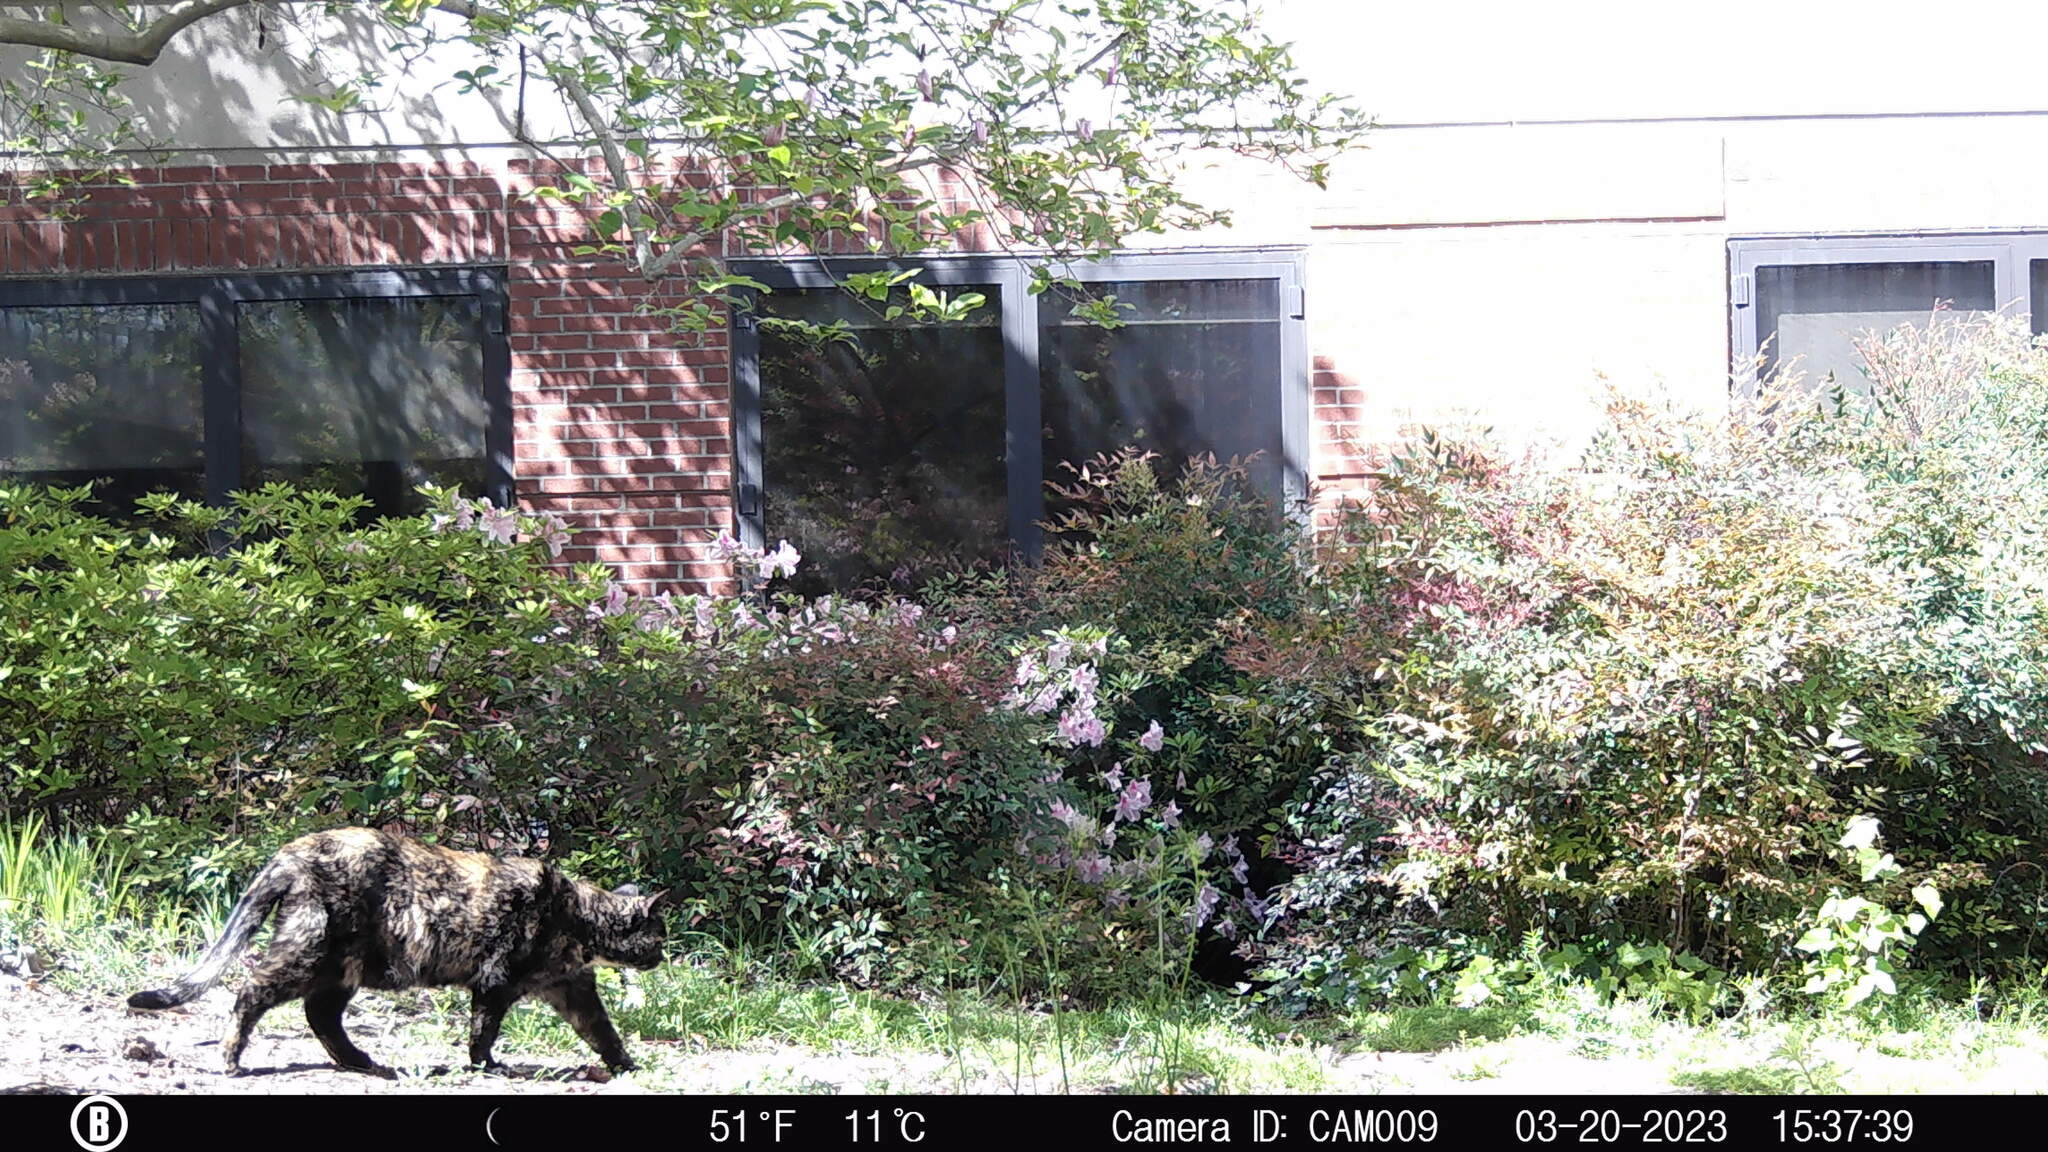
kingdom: Animalia
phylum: Chordata
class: Mammalia
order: Carnivora
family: Felidae
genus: Felis
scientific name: Felis catus
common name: Domestic cat
